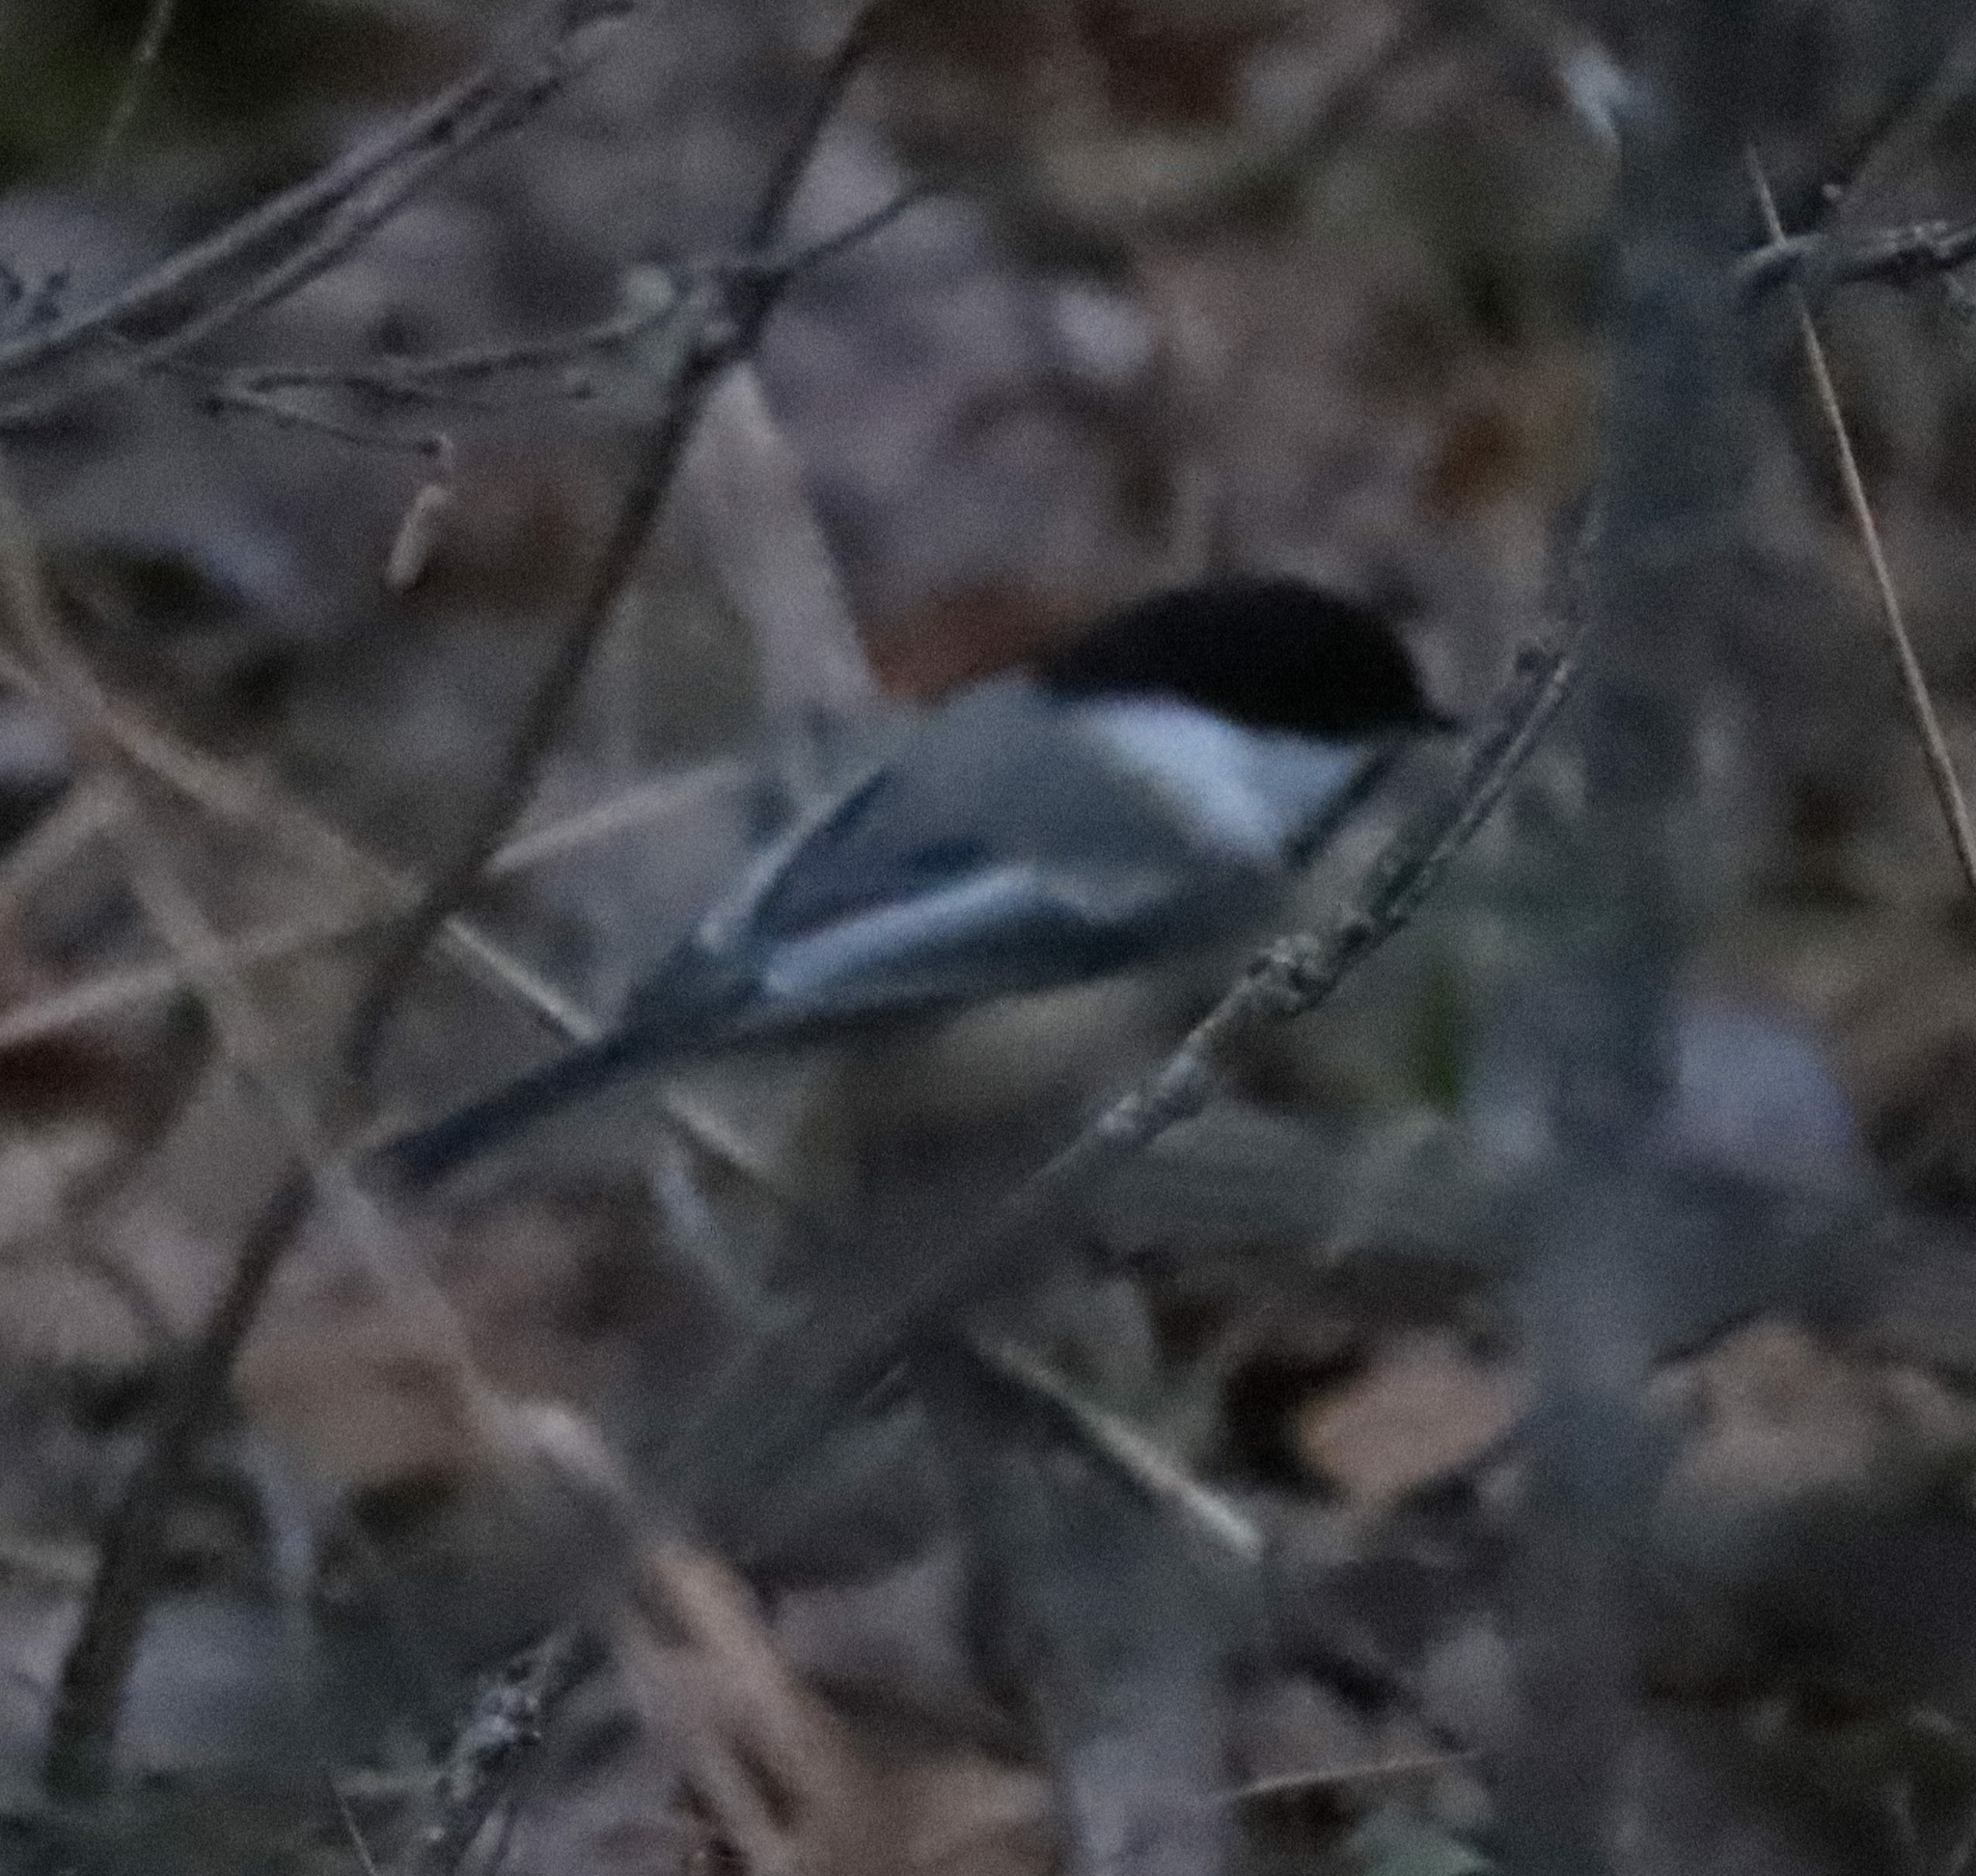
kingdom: Animalia
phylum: Chordata
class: Aves
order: Passeriformes
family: Paridae
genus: Poecile
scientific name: Poecile atricapillus
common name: Black-capped chickadee
